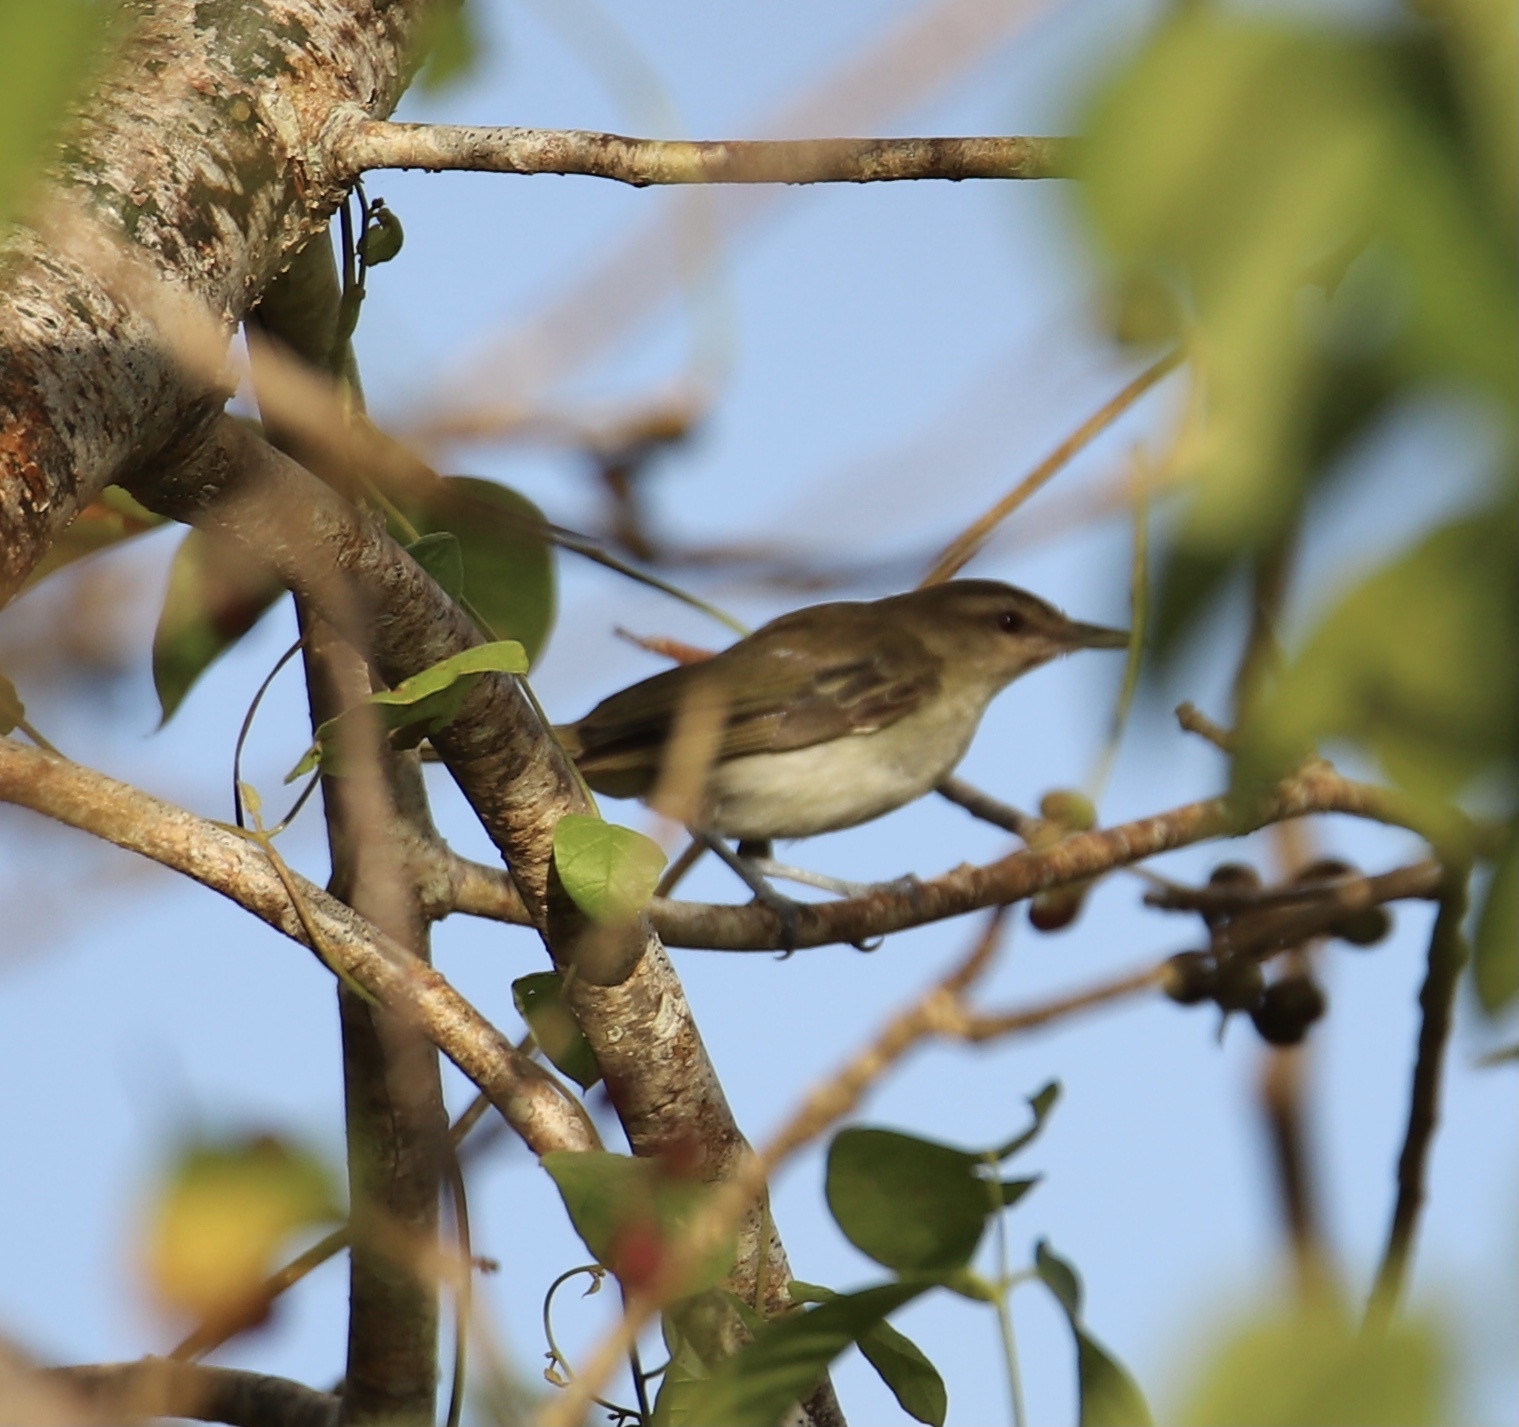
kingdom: Animalia
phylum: Chordata
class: Aves
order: Passeriformes
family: Vireonidae
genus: Vireo
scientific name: Vireo altiloquus
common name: Black-whiskered vireo
